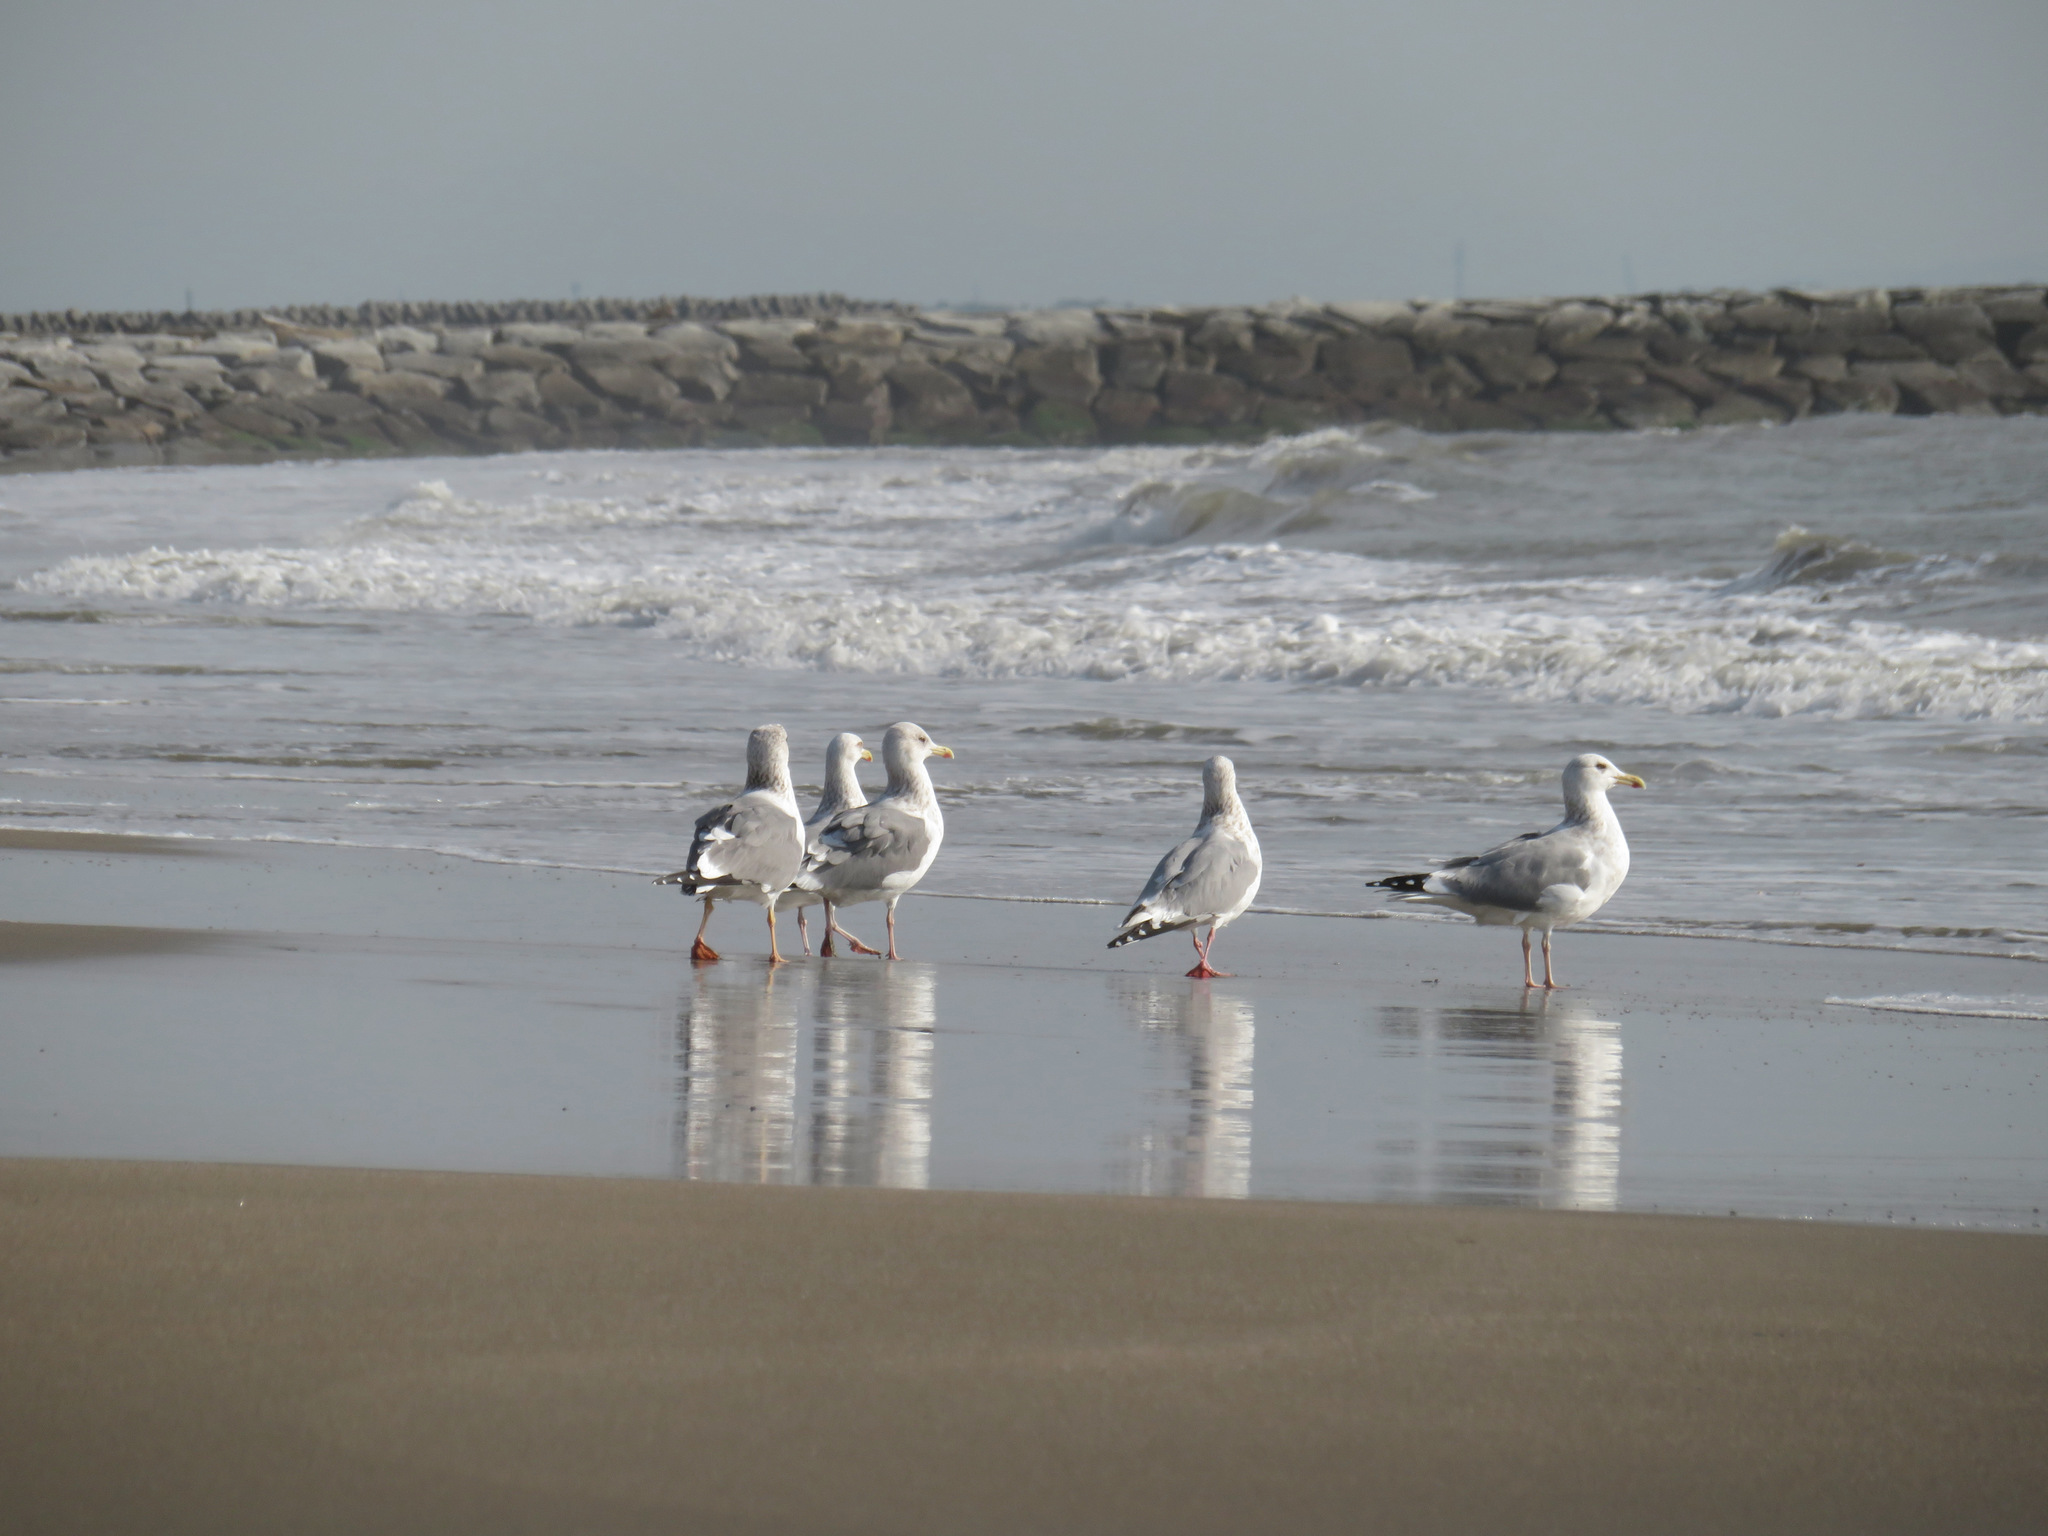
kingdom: Animalia
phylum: Chordata
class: Aves
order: Charadriiformes
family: Laridae
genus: Larus
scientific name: Larus vegae
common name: Vega gull
